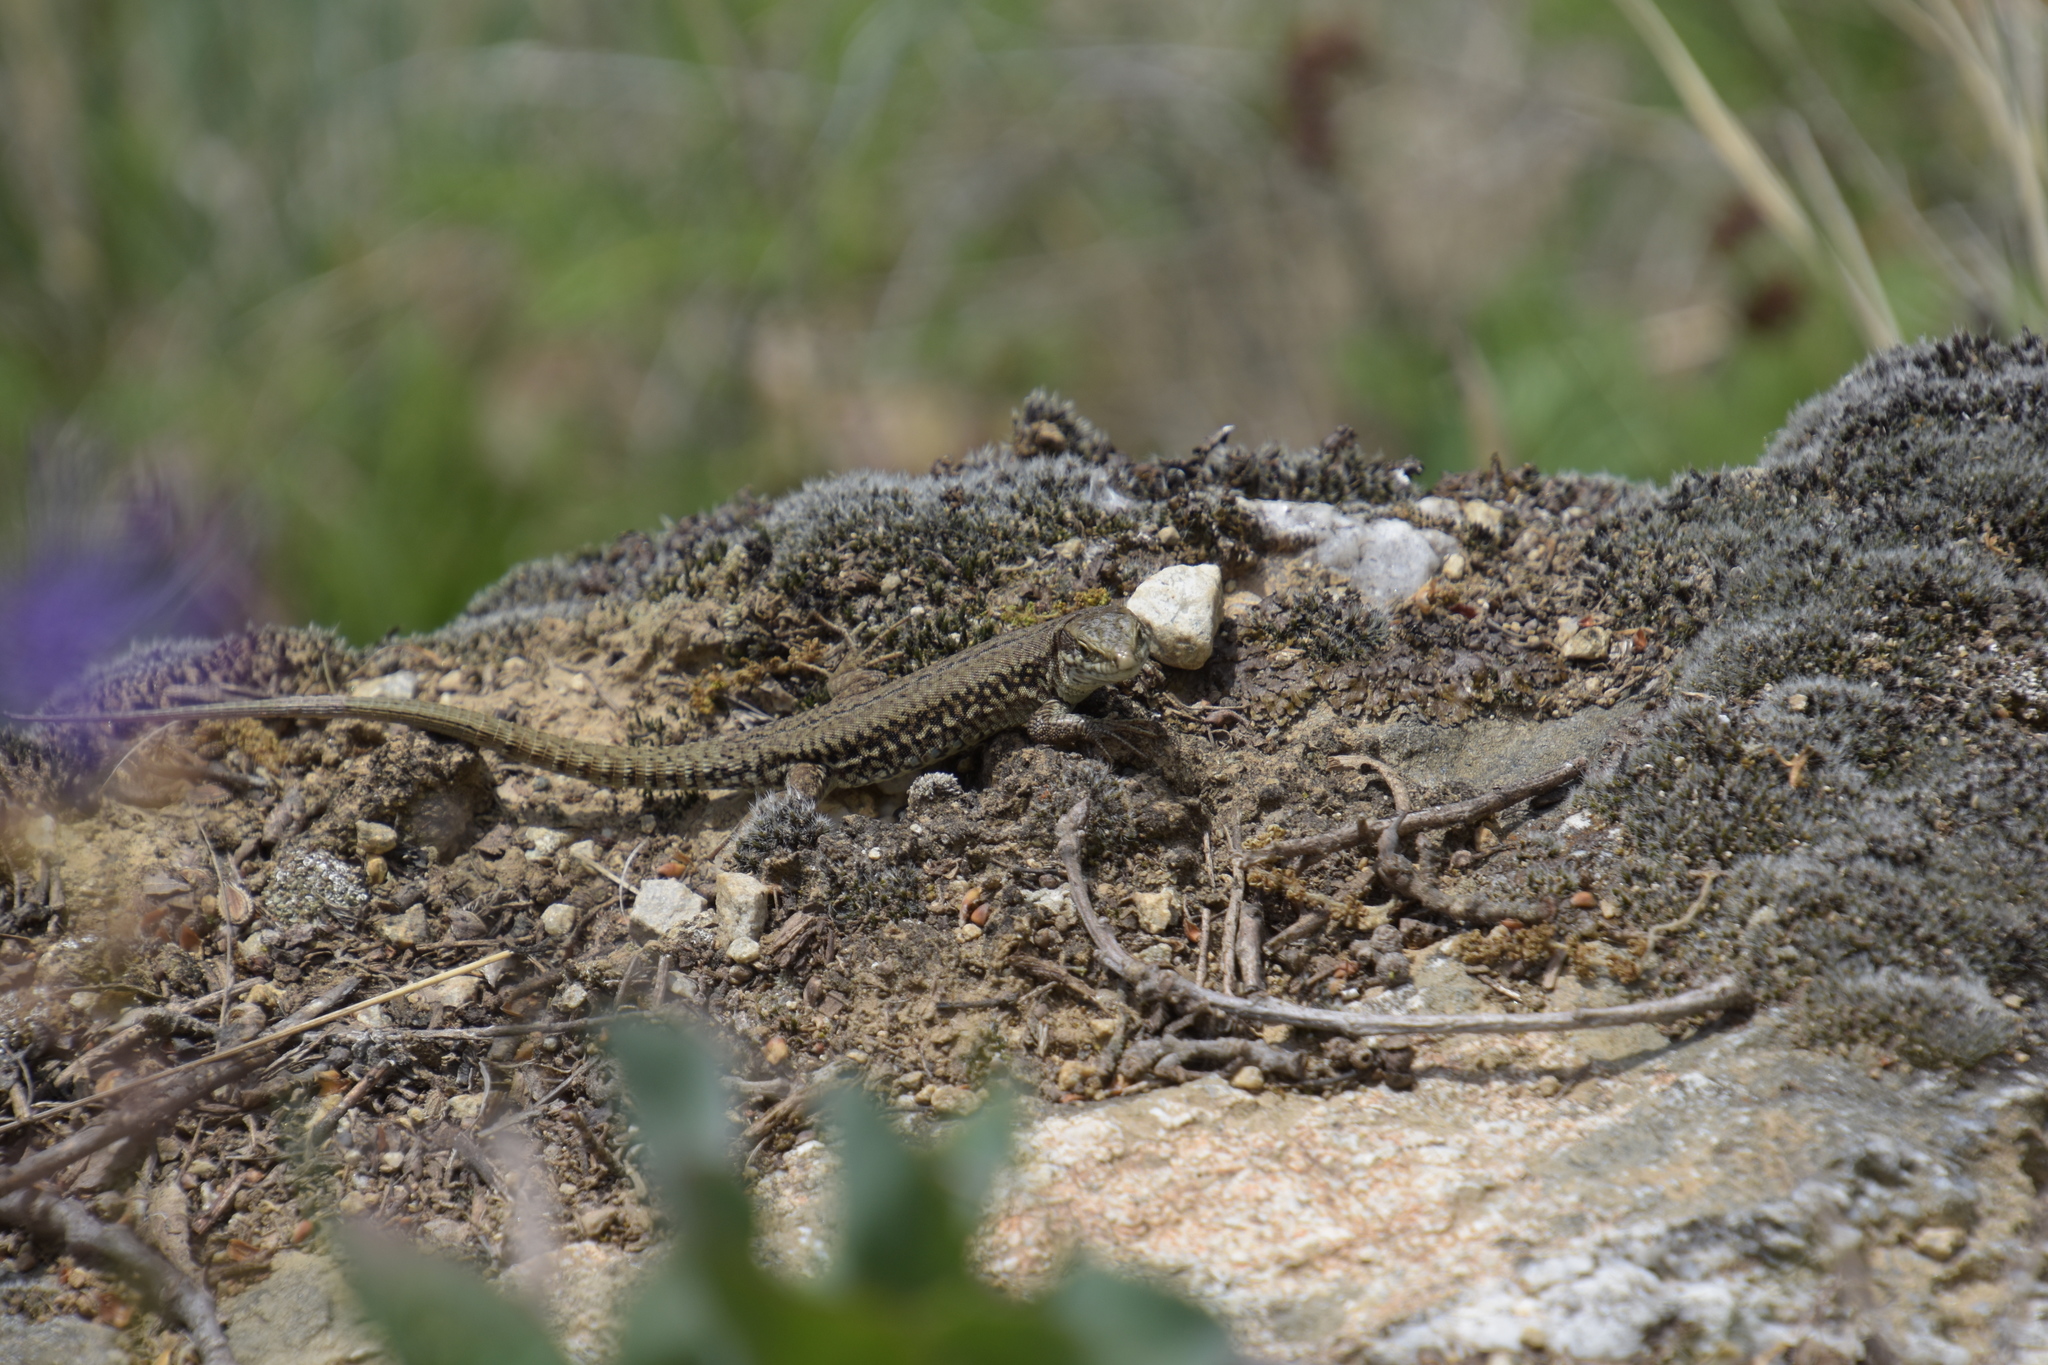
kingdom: Animalia
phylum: Chordata
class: Squamata
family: Lacertidae
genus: Podarcis
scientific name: Podarcis muralis
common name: Common wall lizard
